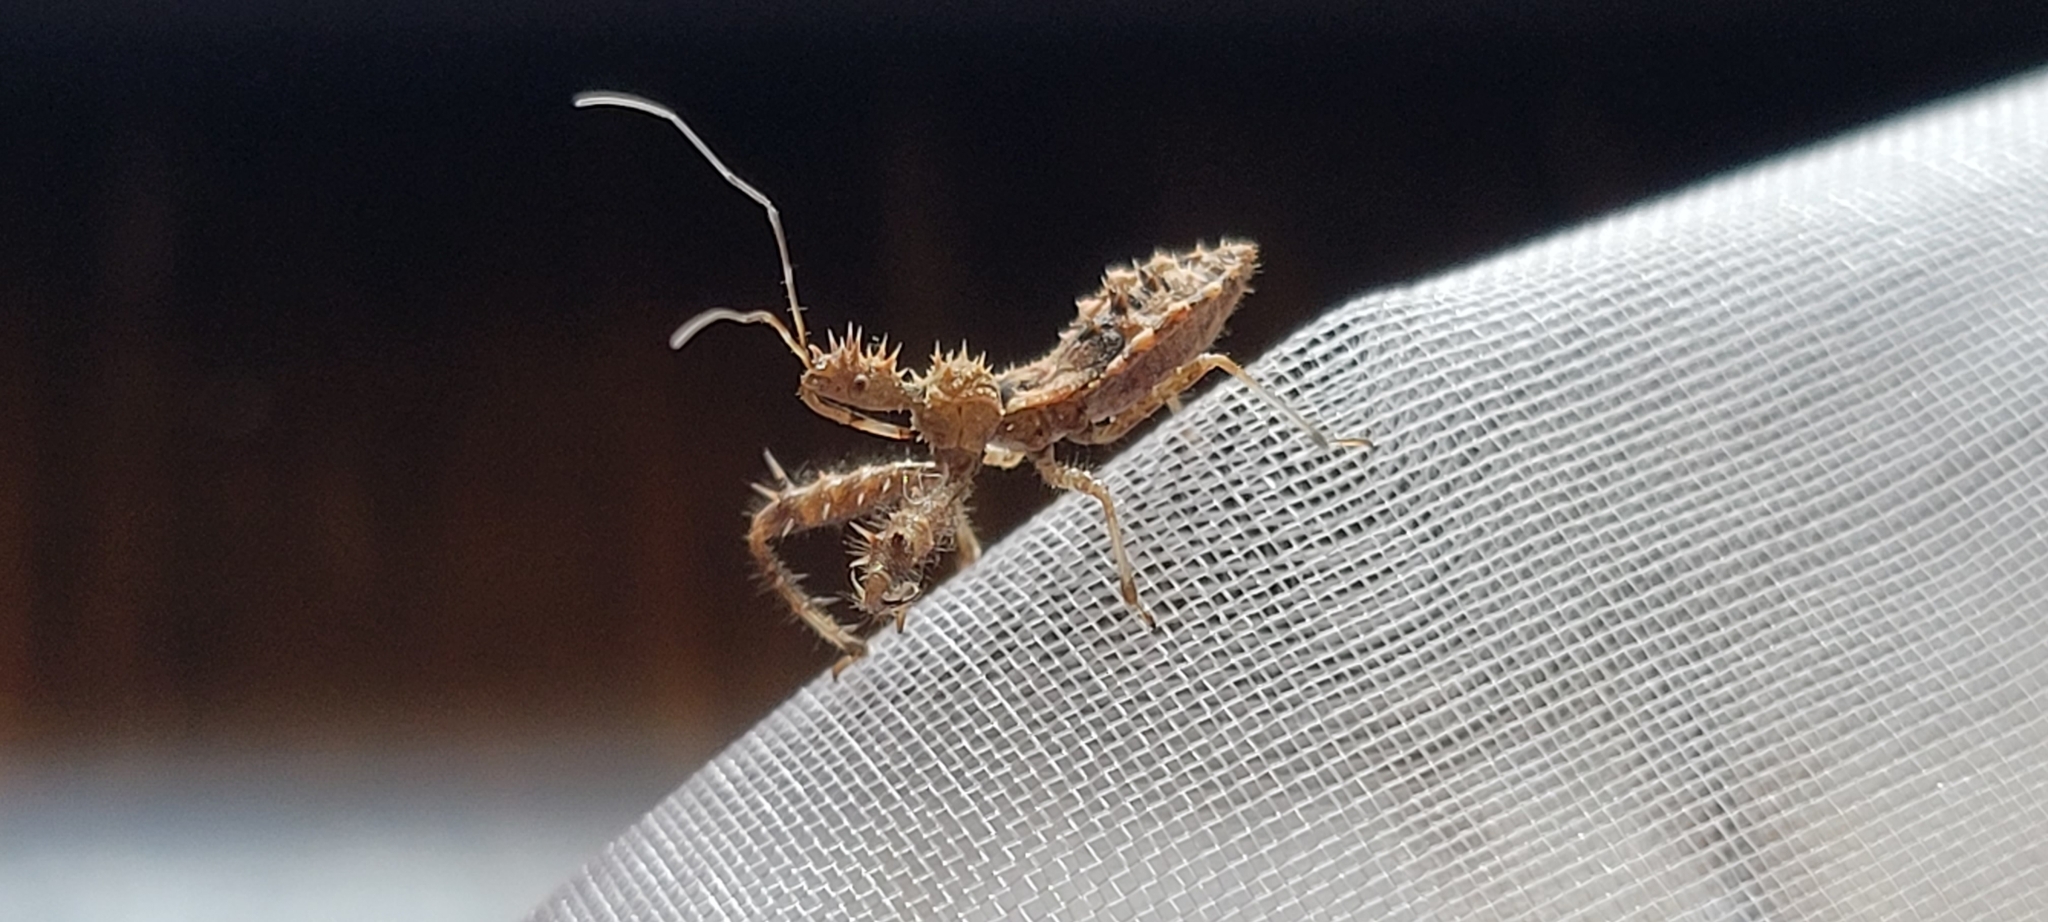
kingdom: Animalia
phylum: Arthropoda
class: Insecta
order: Hemiptera
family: Reduviidae
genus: Sinea
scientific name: Sinea spinipes
